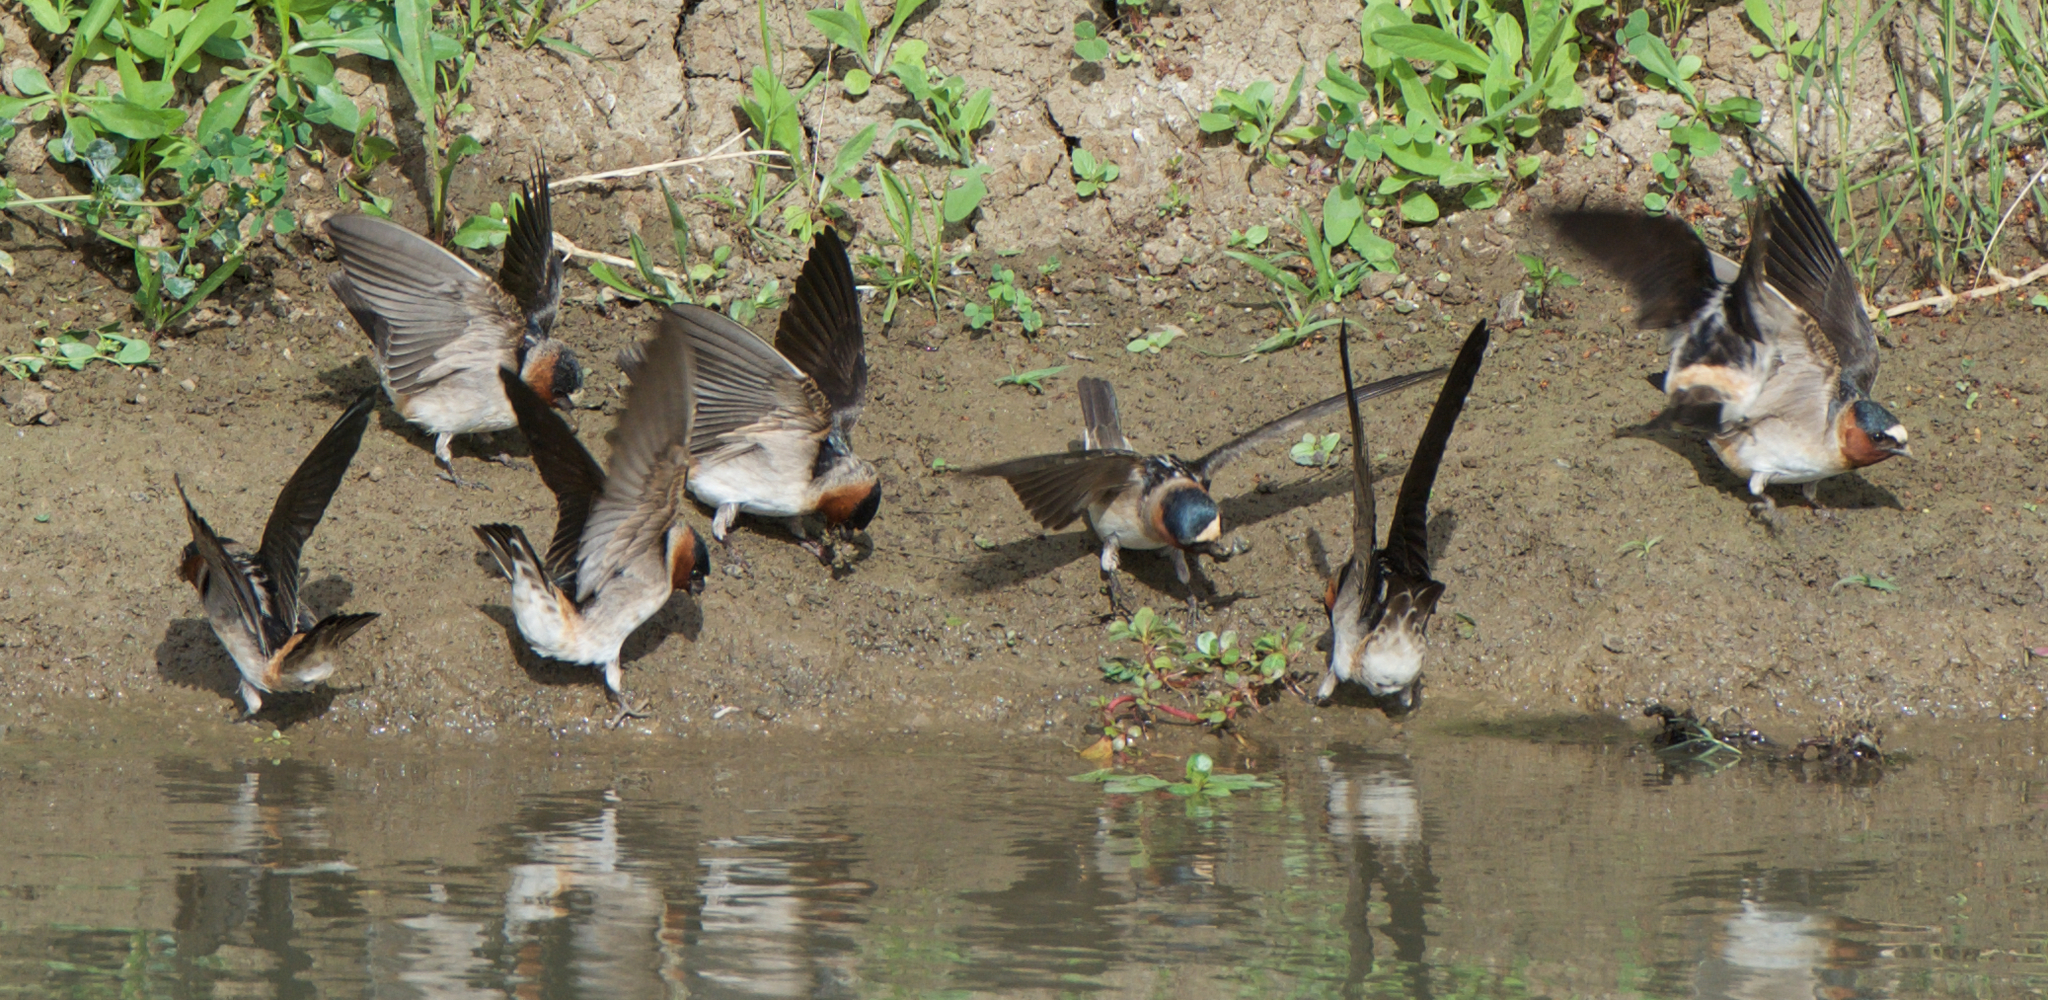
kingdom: Animalia
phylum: Chordata
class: Aves
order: Passeriformes
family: Hirundinidae
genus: Petrochelidon
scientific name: Petrochelidon pyrrhonota
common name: American cliff swallow
